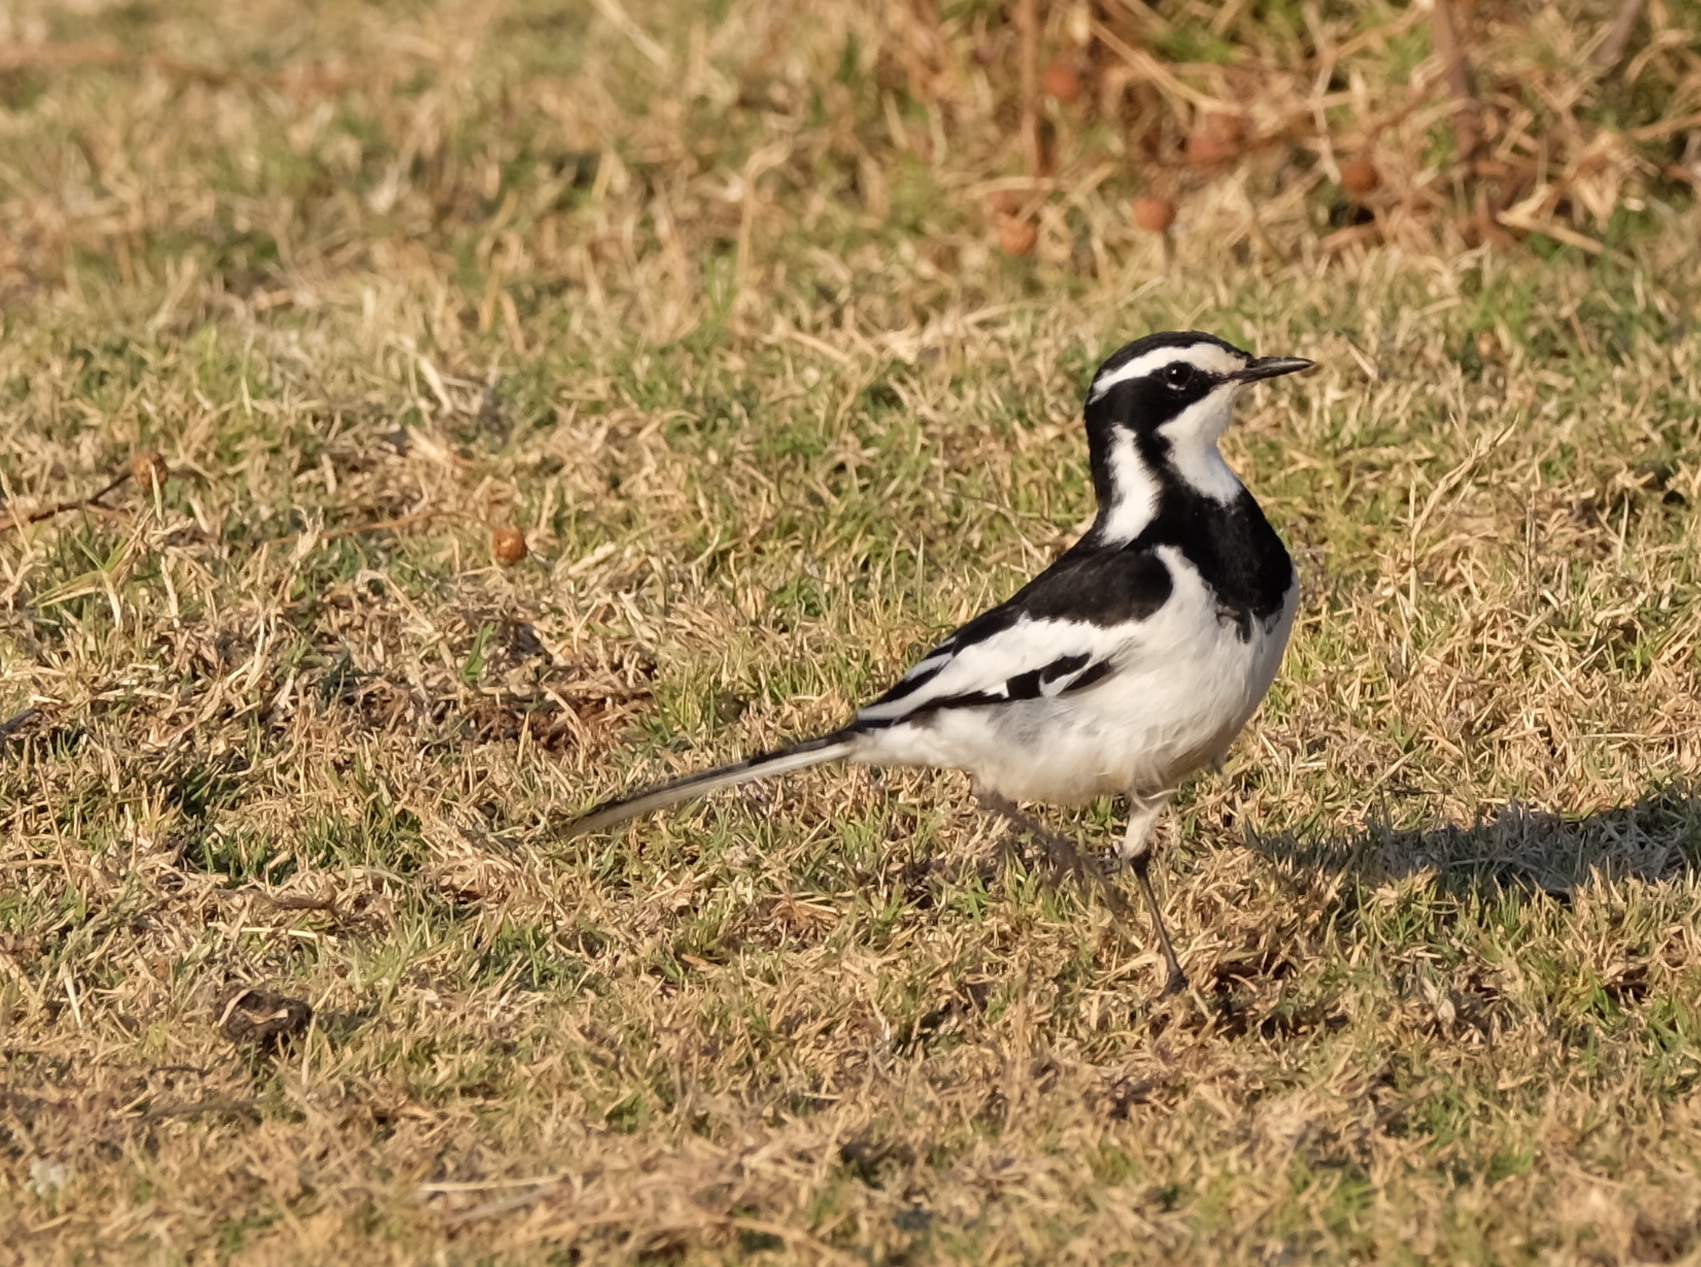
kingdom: Animalia
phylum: Chordata
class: Aves
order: Passeriformes
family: Motacillidae
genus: Motacilla
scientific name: Motacilla aguimp
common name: African pied wagtail
